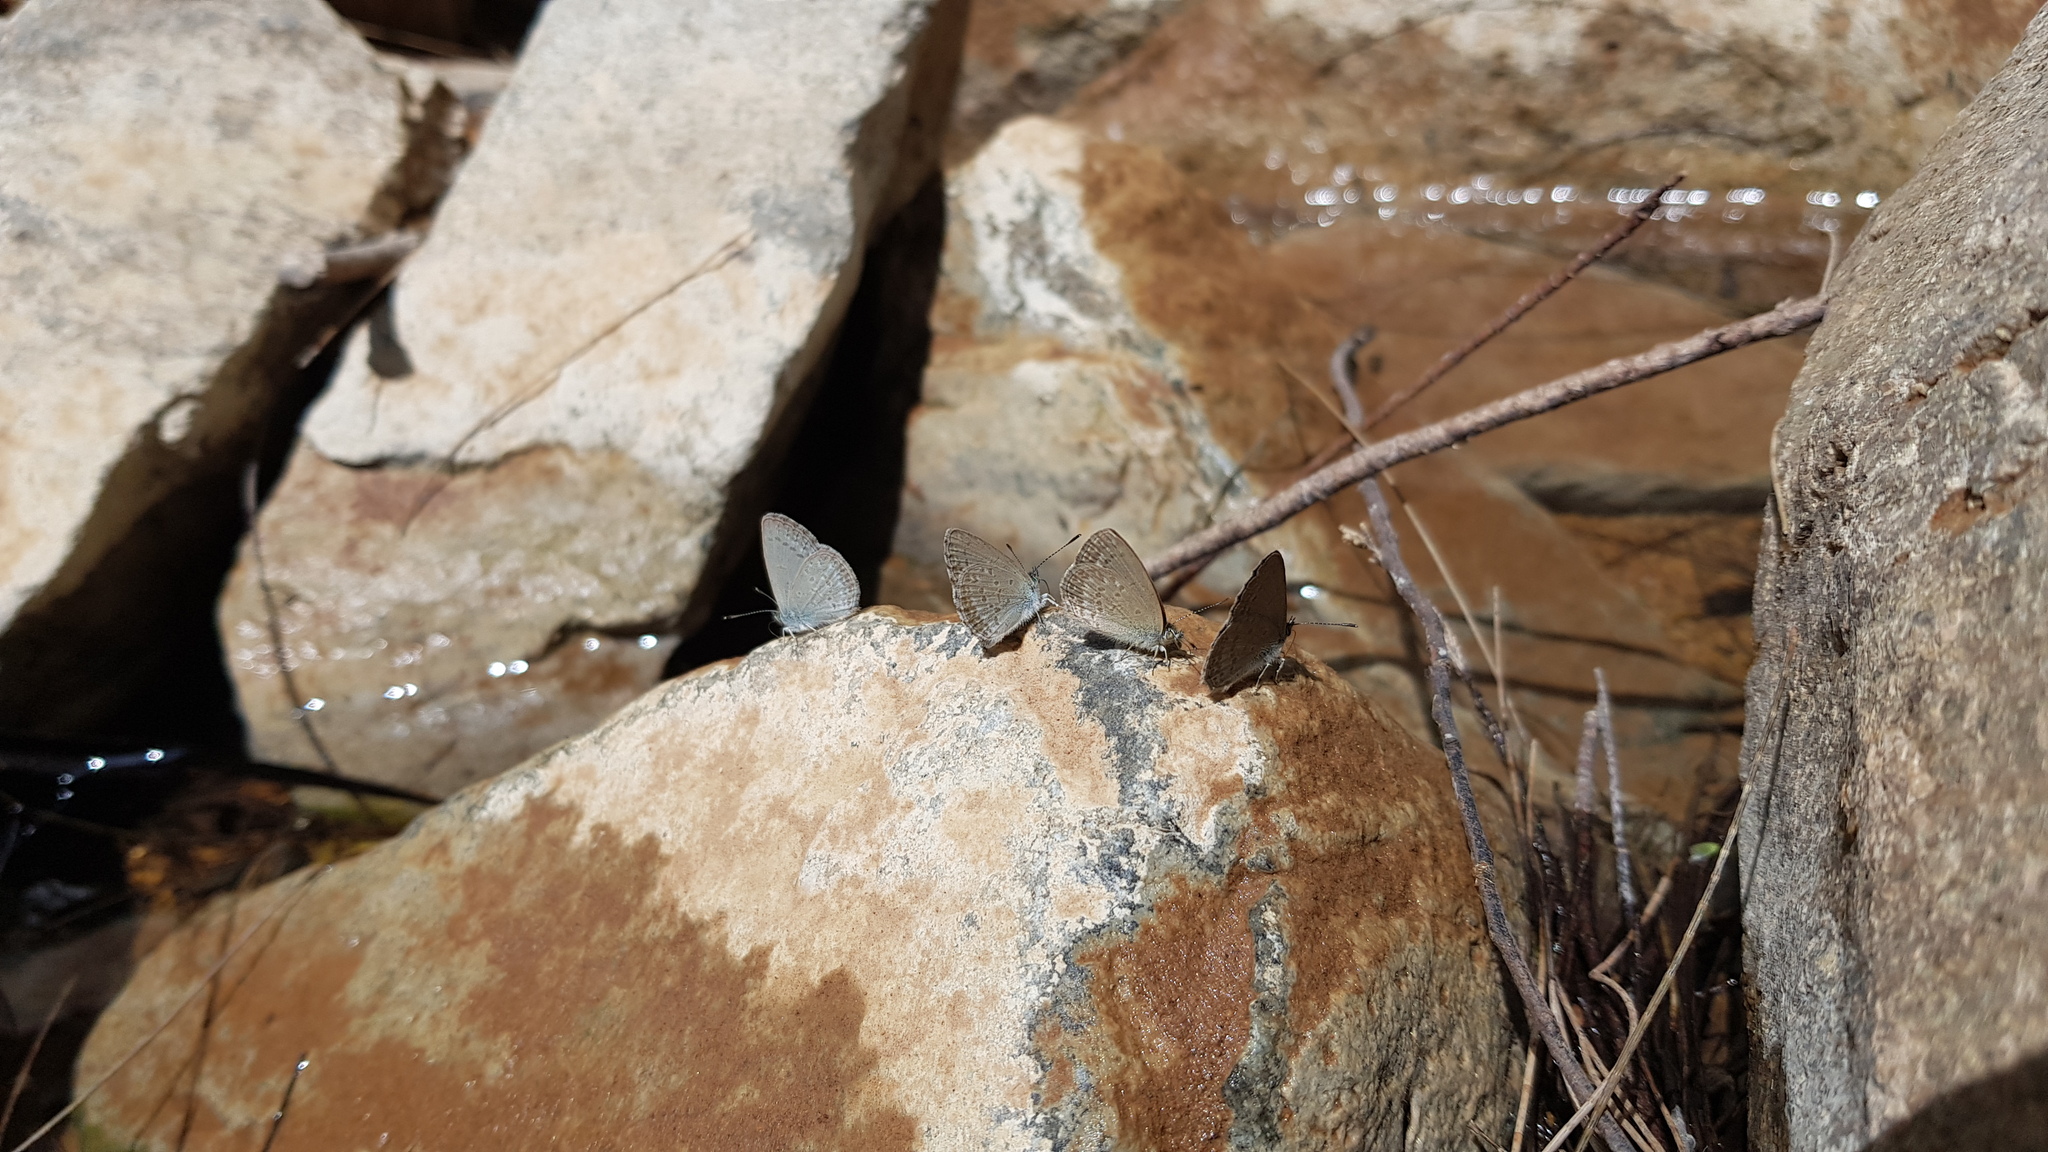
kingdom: Animalia
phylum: Arthropoda
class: Insecta
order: Lepidoptera
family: Lycaenidae
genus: Zizina
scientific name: Zizina labradus
